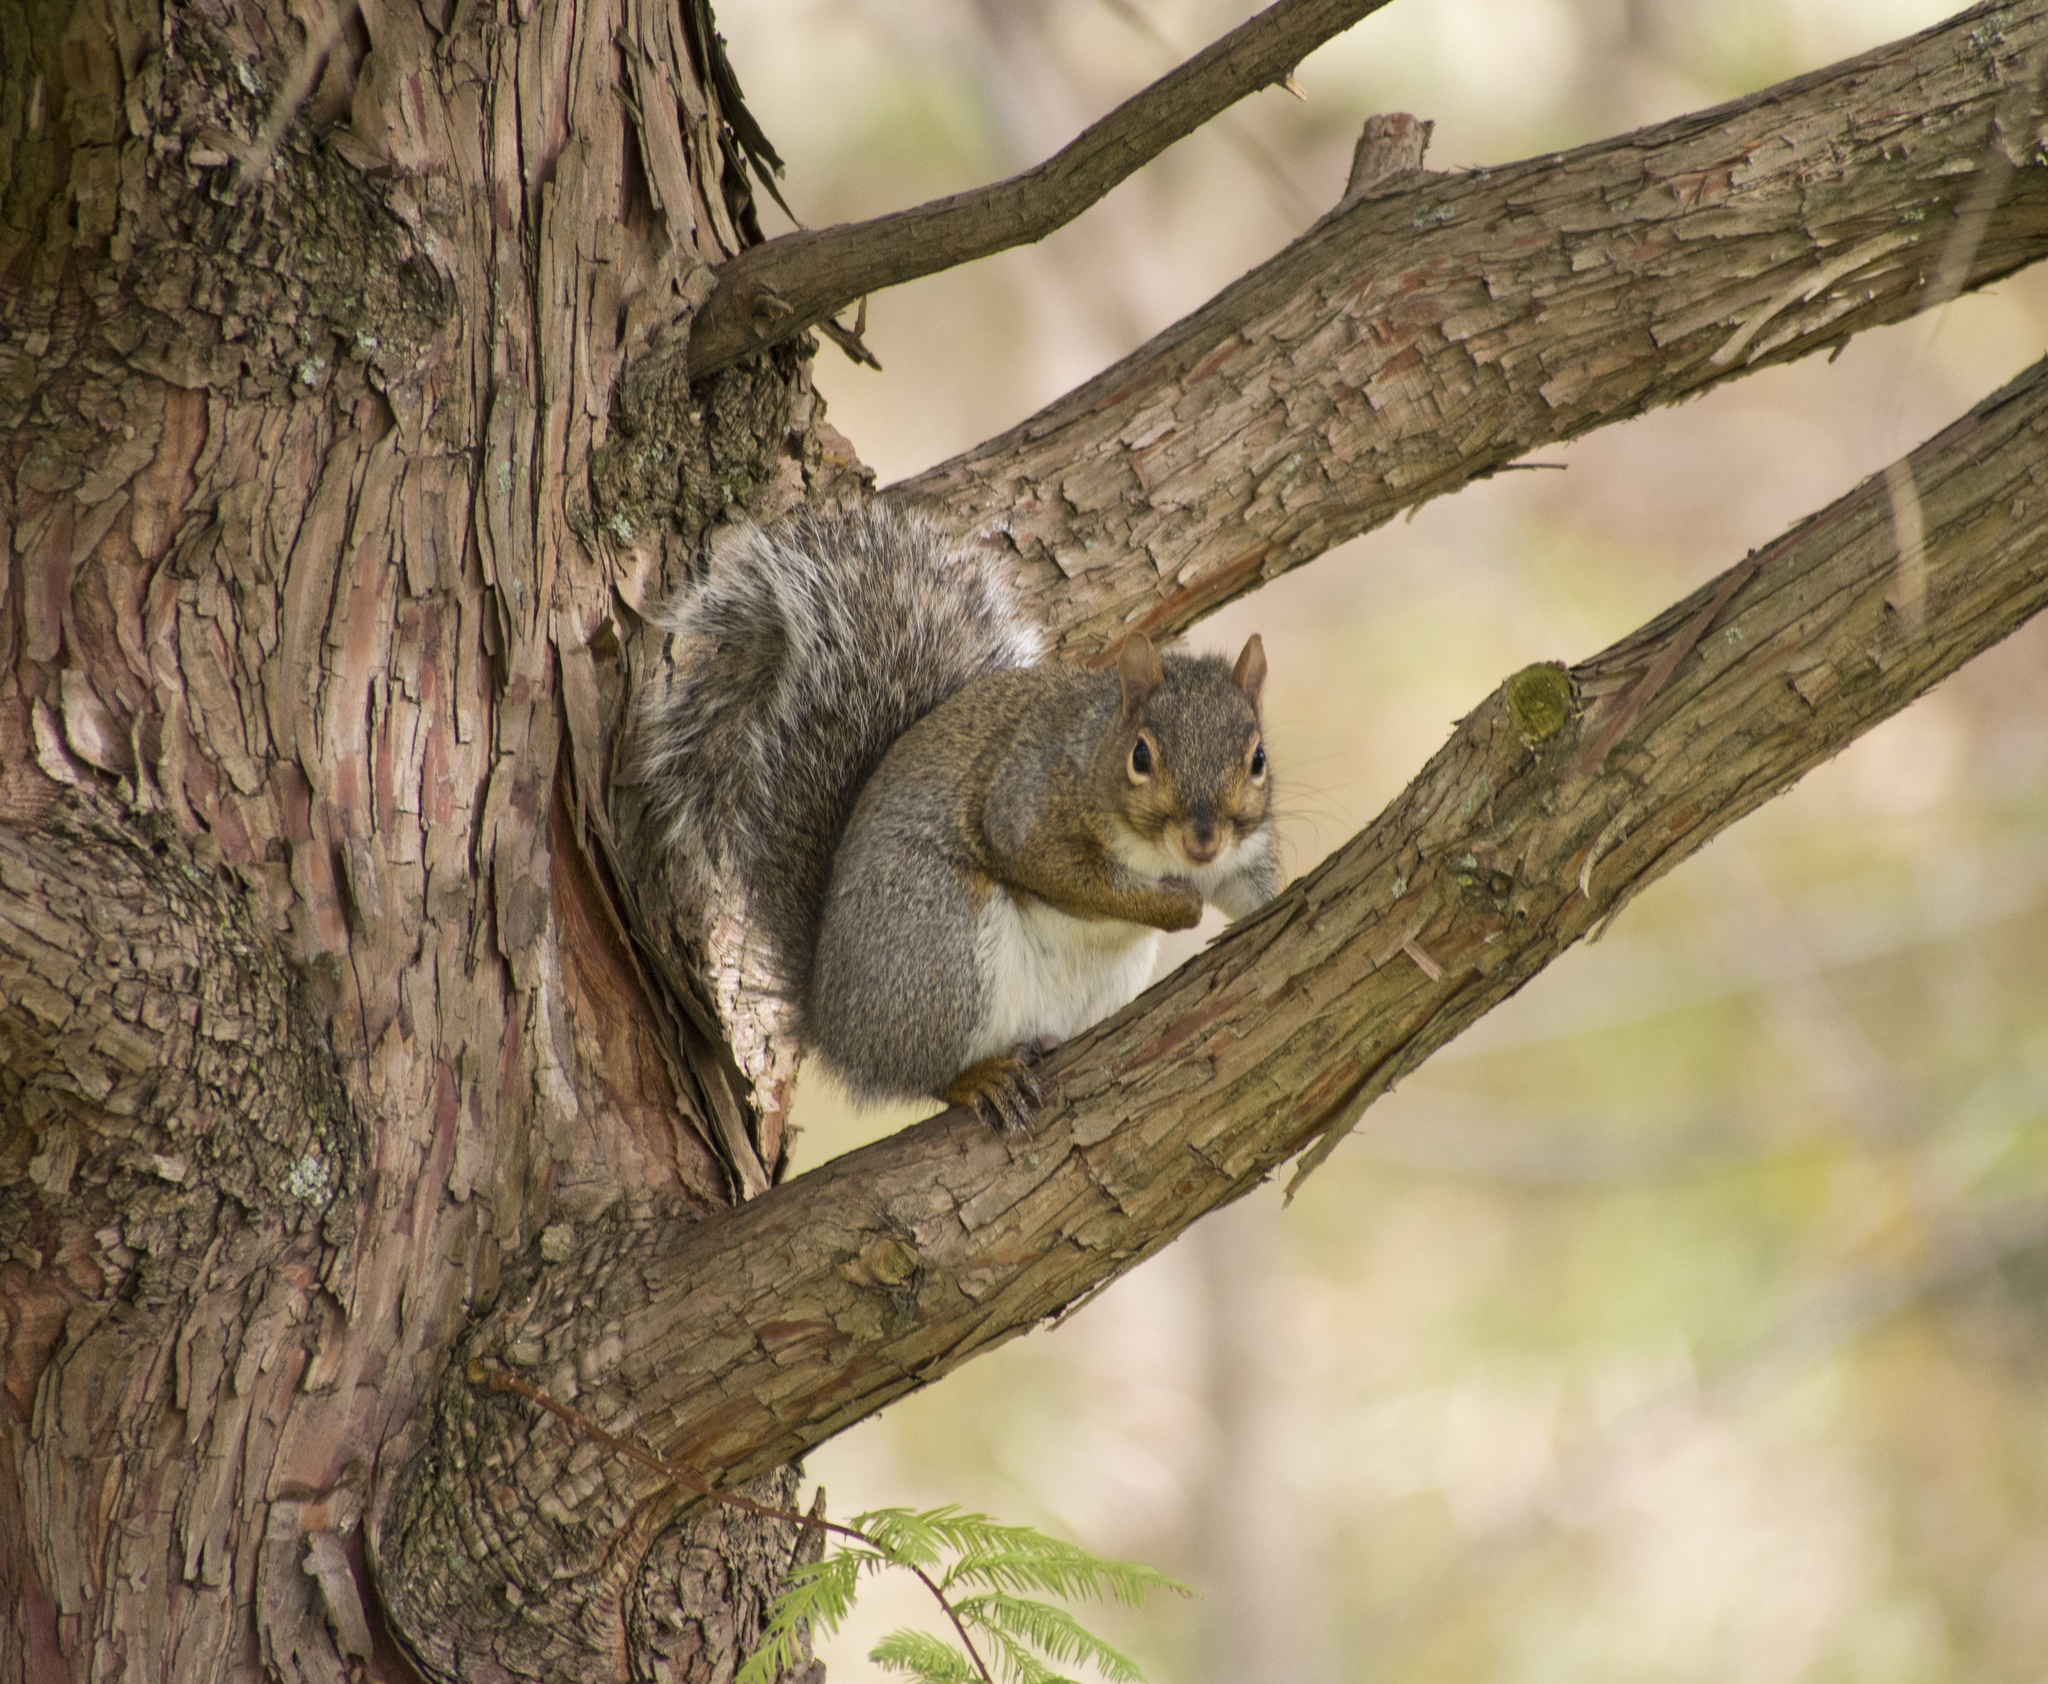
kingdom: Animalia
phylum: Chordata
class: Mammalia
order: Rodentia
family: Sciuridae
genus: Sciurus
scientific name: Sciurus carolinensis
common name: Eastern gray squirrel
